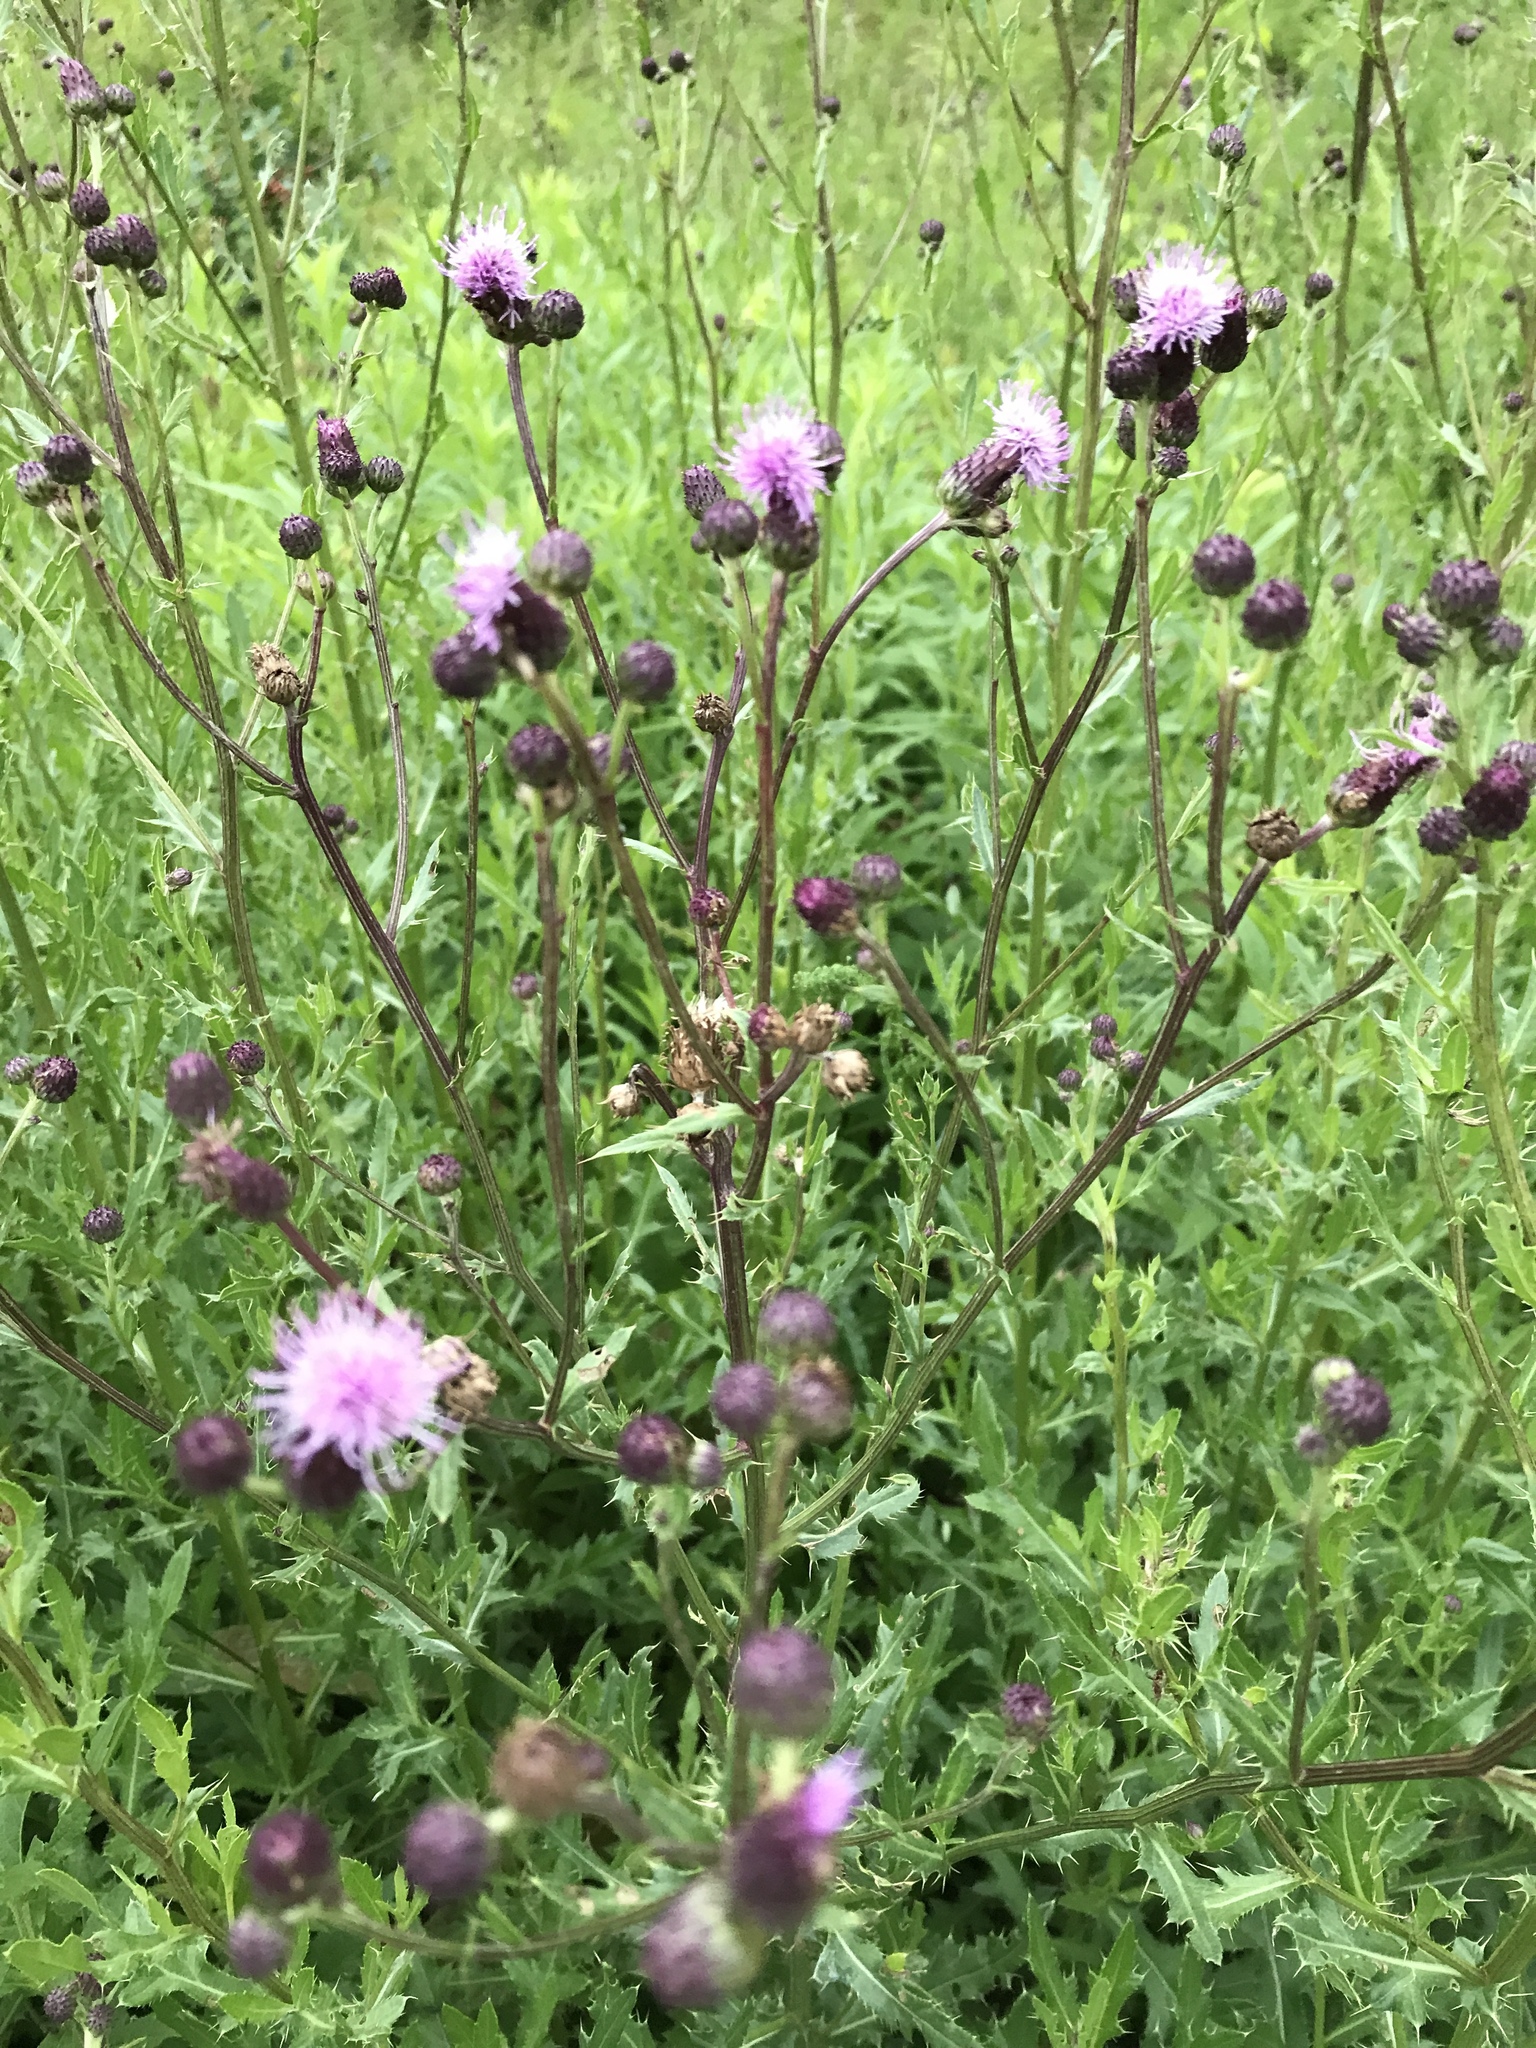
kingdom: Plantae
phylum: Tracheophyta
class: Magnoliopsida
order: Asterales
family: Asteraceae
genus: Cirsium
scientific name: Cirsium arvense
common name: Creeping thistle
